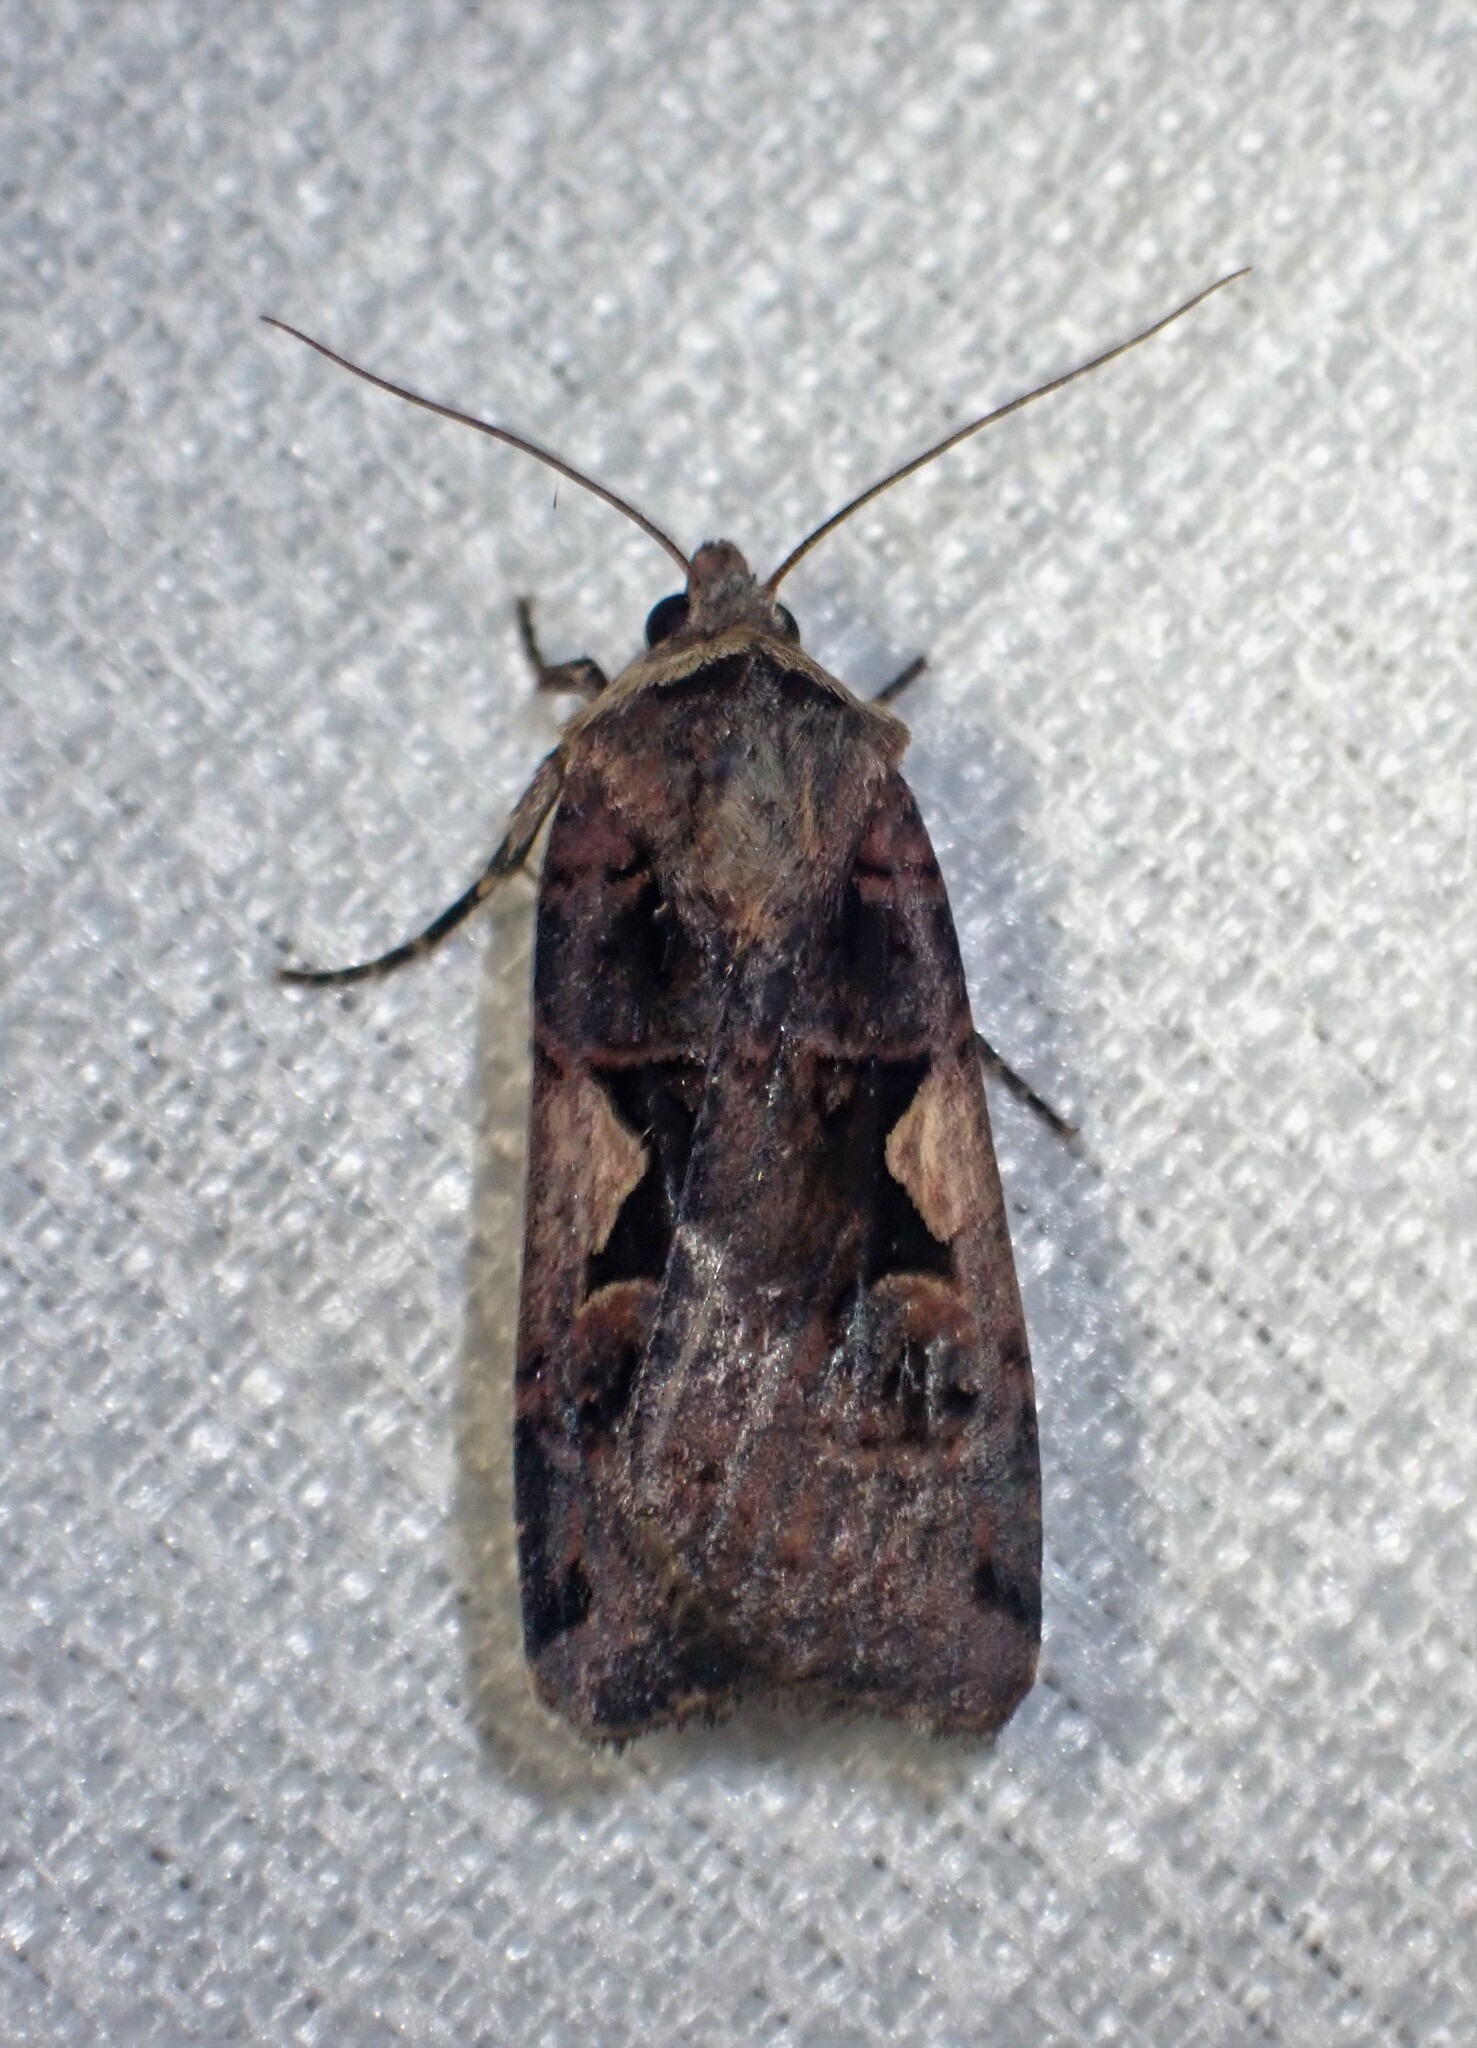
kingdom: Animalia
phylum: Arthropoda
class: Insecta
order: Lepidoptera
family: Noctuidae
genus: Xestia
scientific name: Xestia c-nigrum
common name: Setaceous hebrew character
